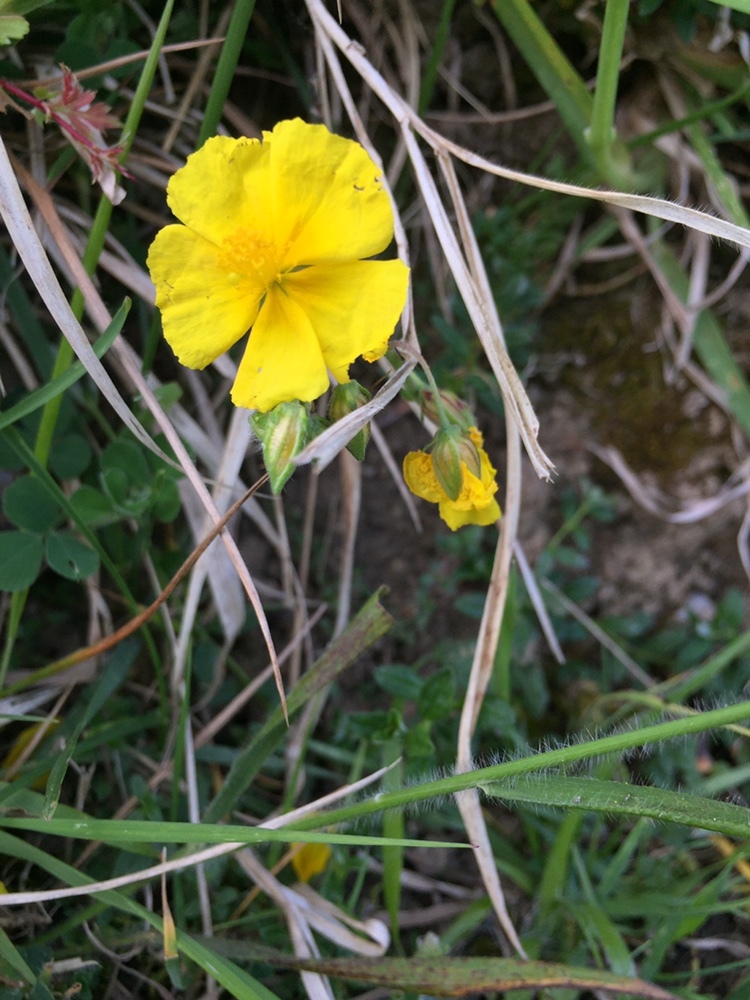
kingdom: Plantae
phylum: Tracheophyta
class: Magnoliopsida
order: Malvales
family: Cistaceae
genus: Helianthemum
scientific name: Helianthemum nummularium
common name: Common rock-rose
